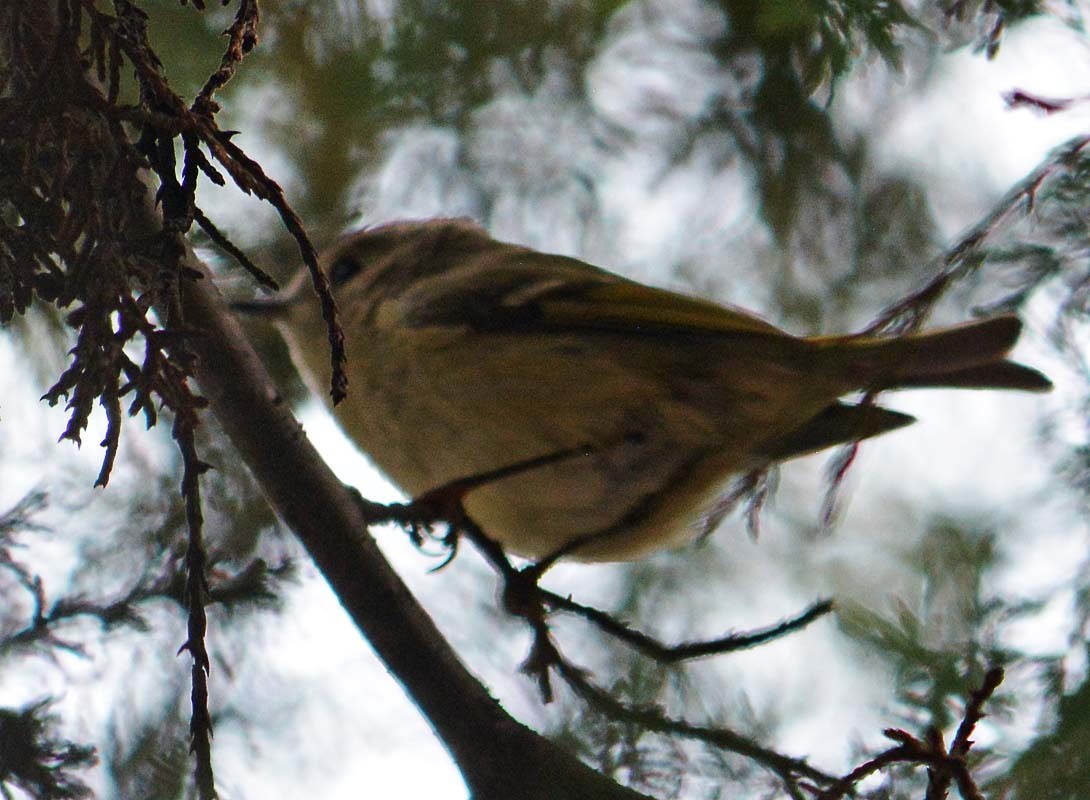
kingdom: Animalia
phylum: Chordata
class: Aves
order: Passeriformes
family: Regulidae
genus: Regulus
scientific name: Regulus calendula
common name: Ruby-crowned kinglet
